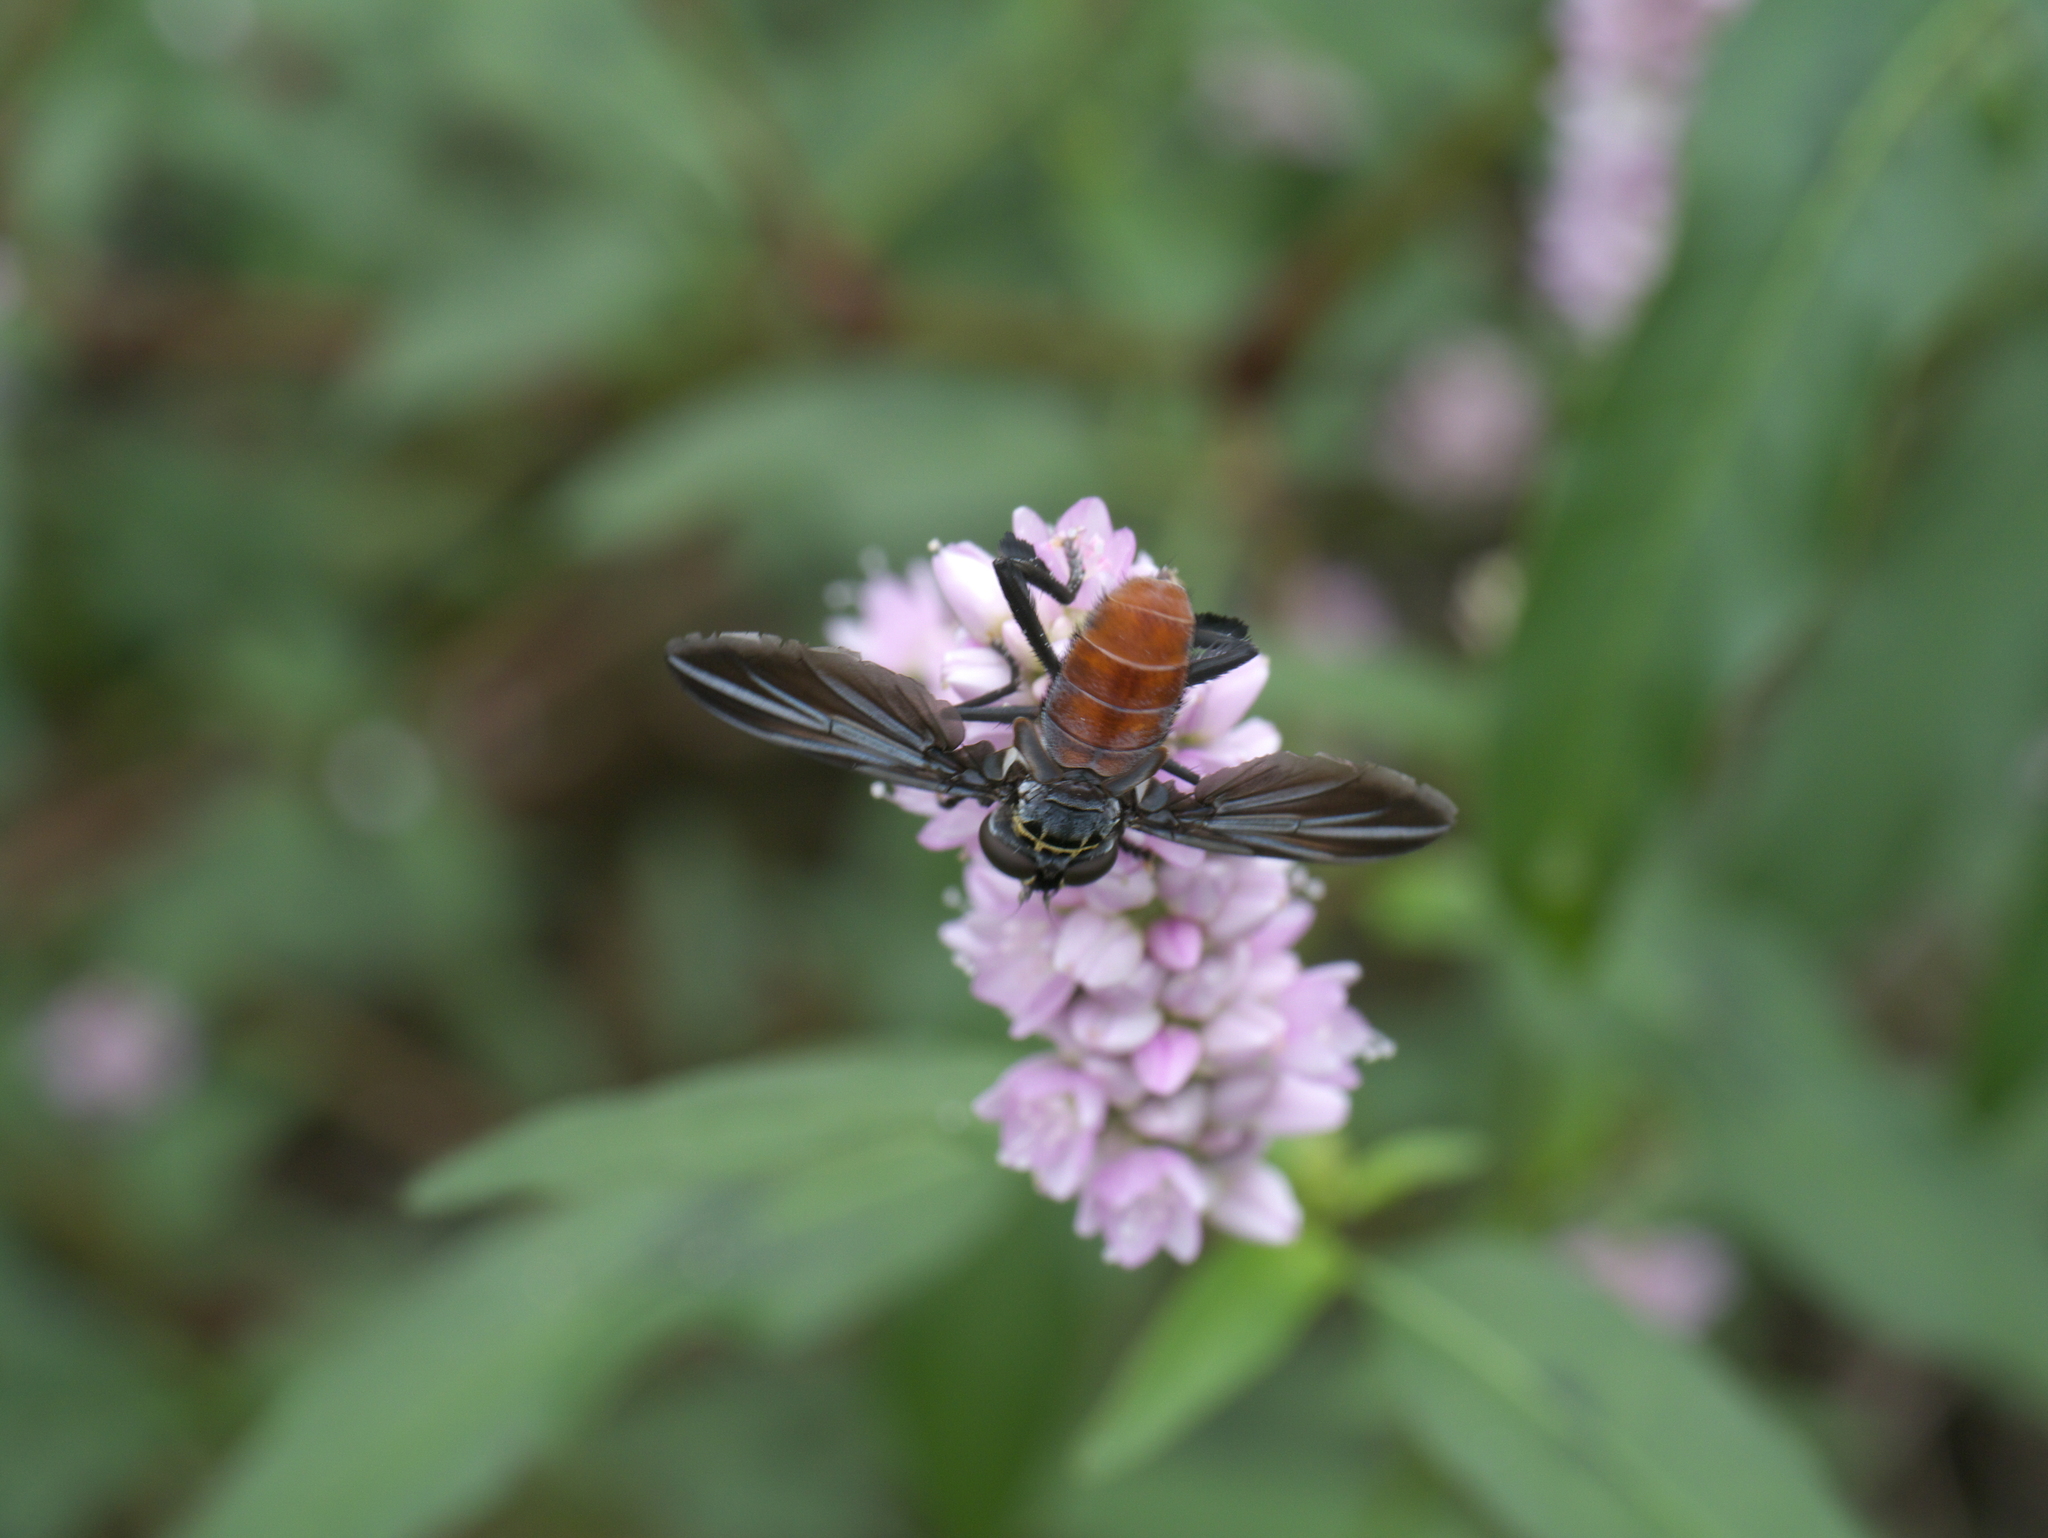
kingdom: Animalia
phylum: Arthropoda
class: Insecta
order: Diptera
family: Tachinidae
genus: Trichopoda
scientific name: Trichopoda lanipes
